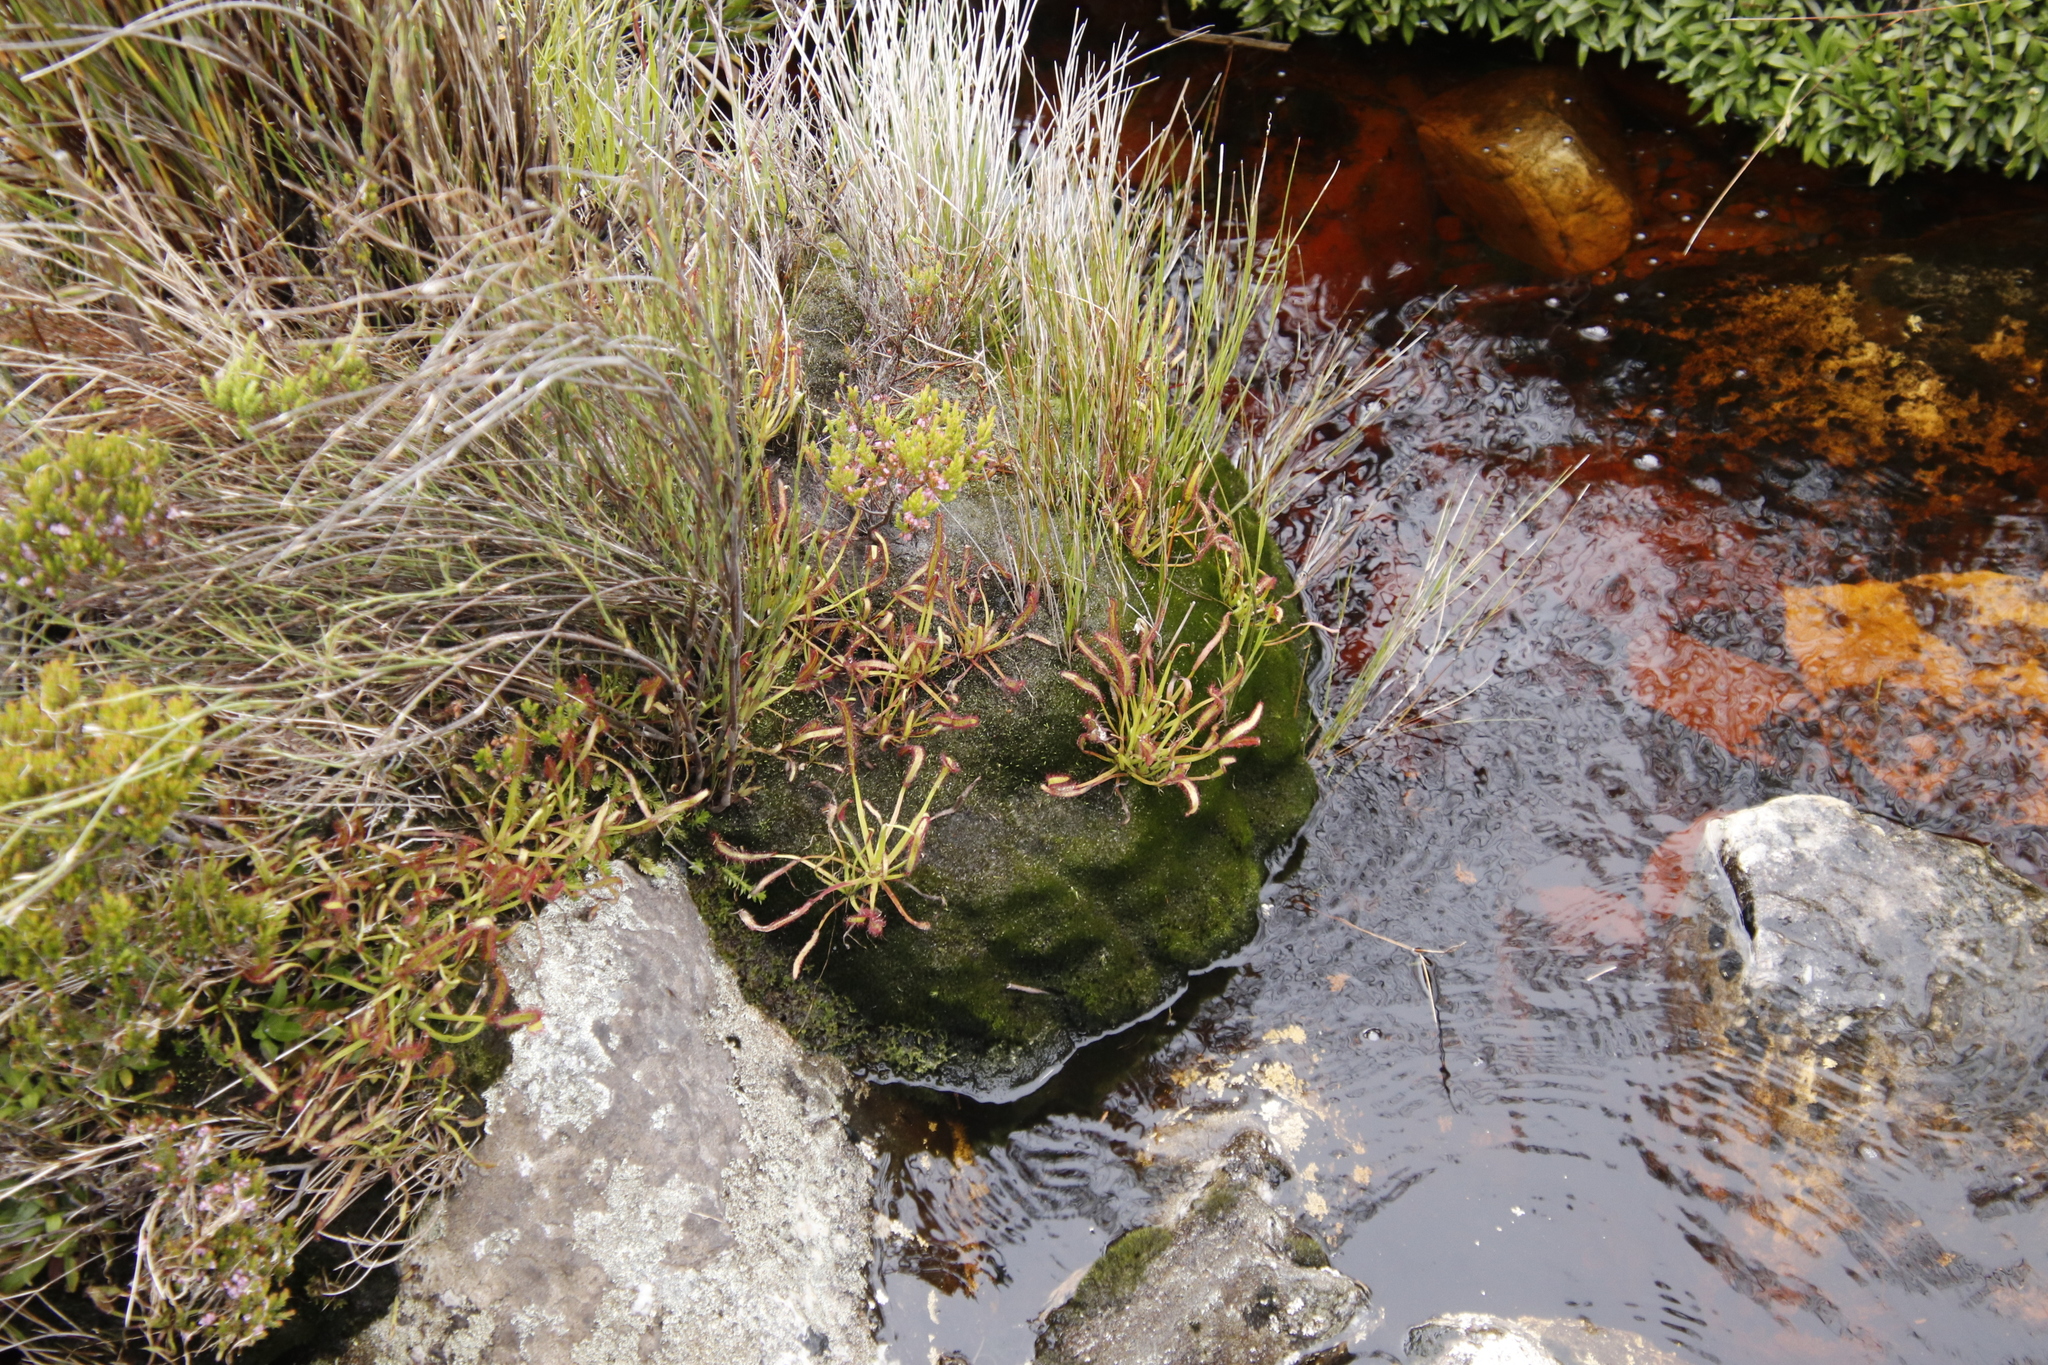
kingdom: Plantae
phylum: Tracheophyta
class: Magnoliopsida
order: Caryophyllales
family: Droseraceae
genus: Drosera
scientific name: Drosera capensis
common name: Cape sundew
